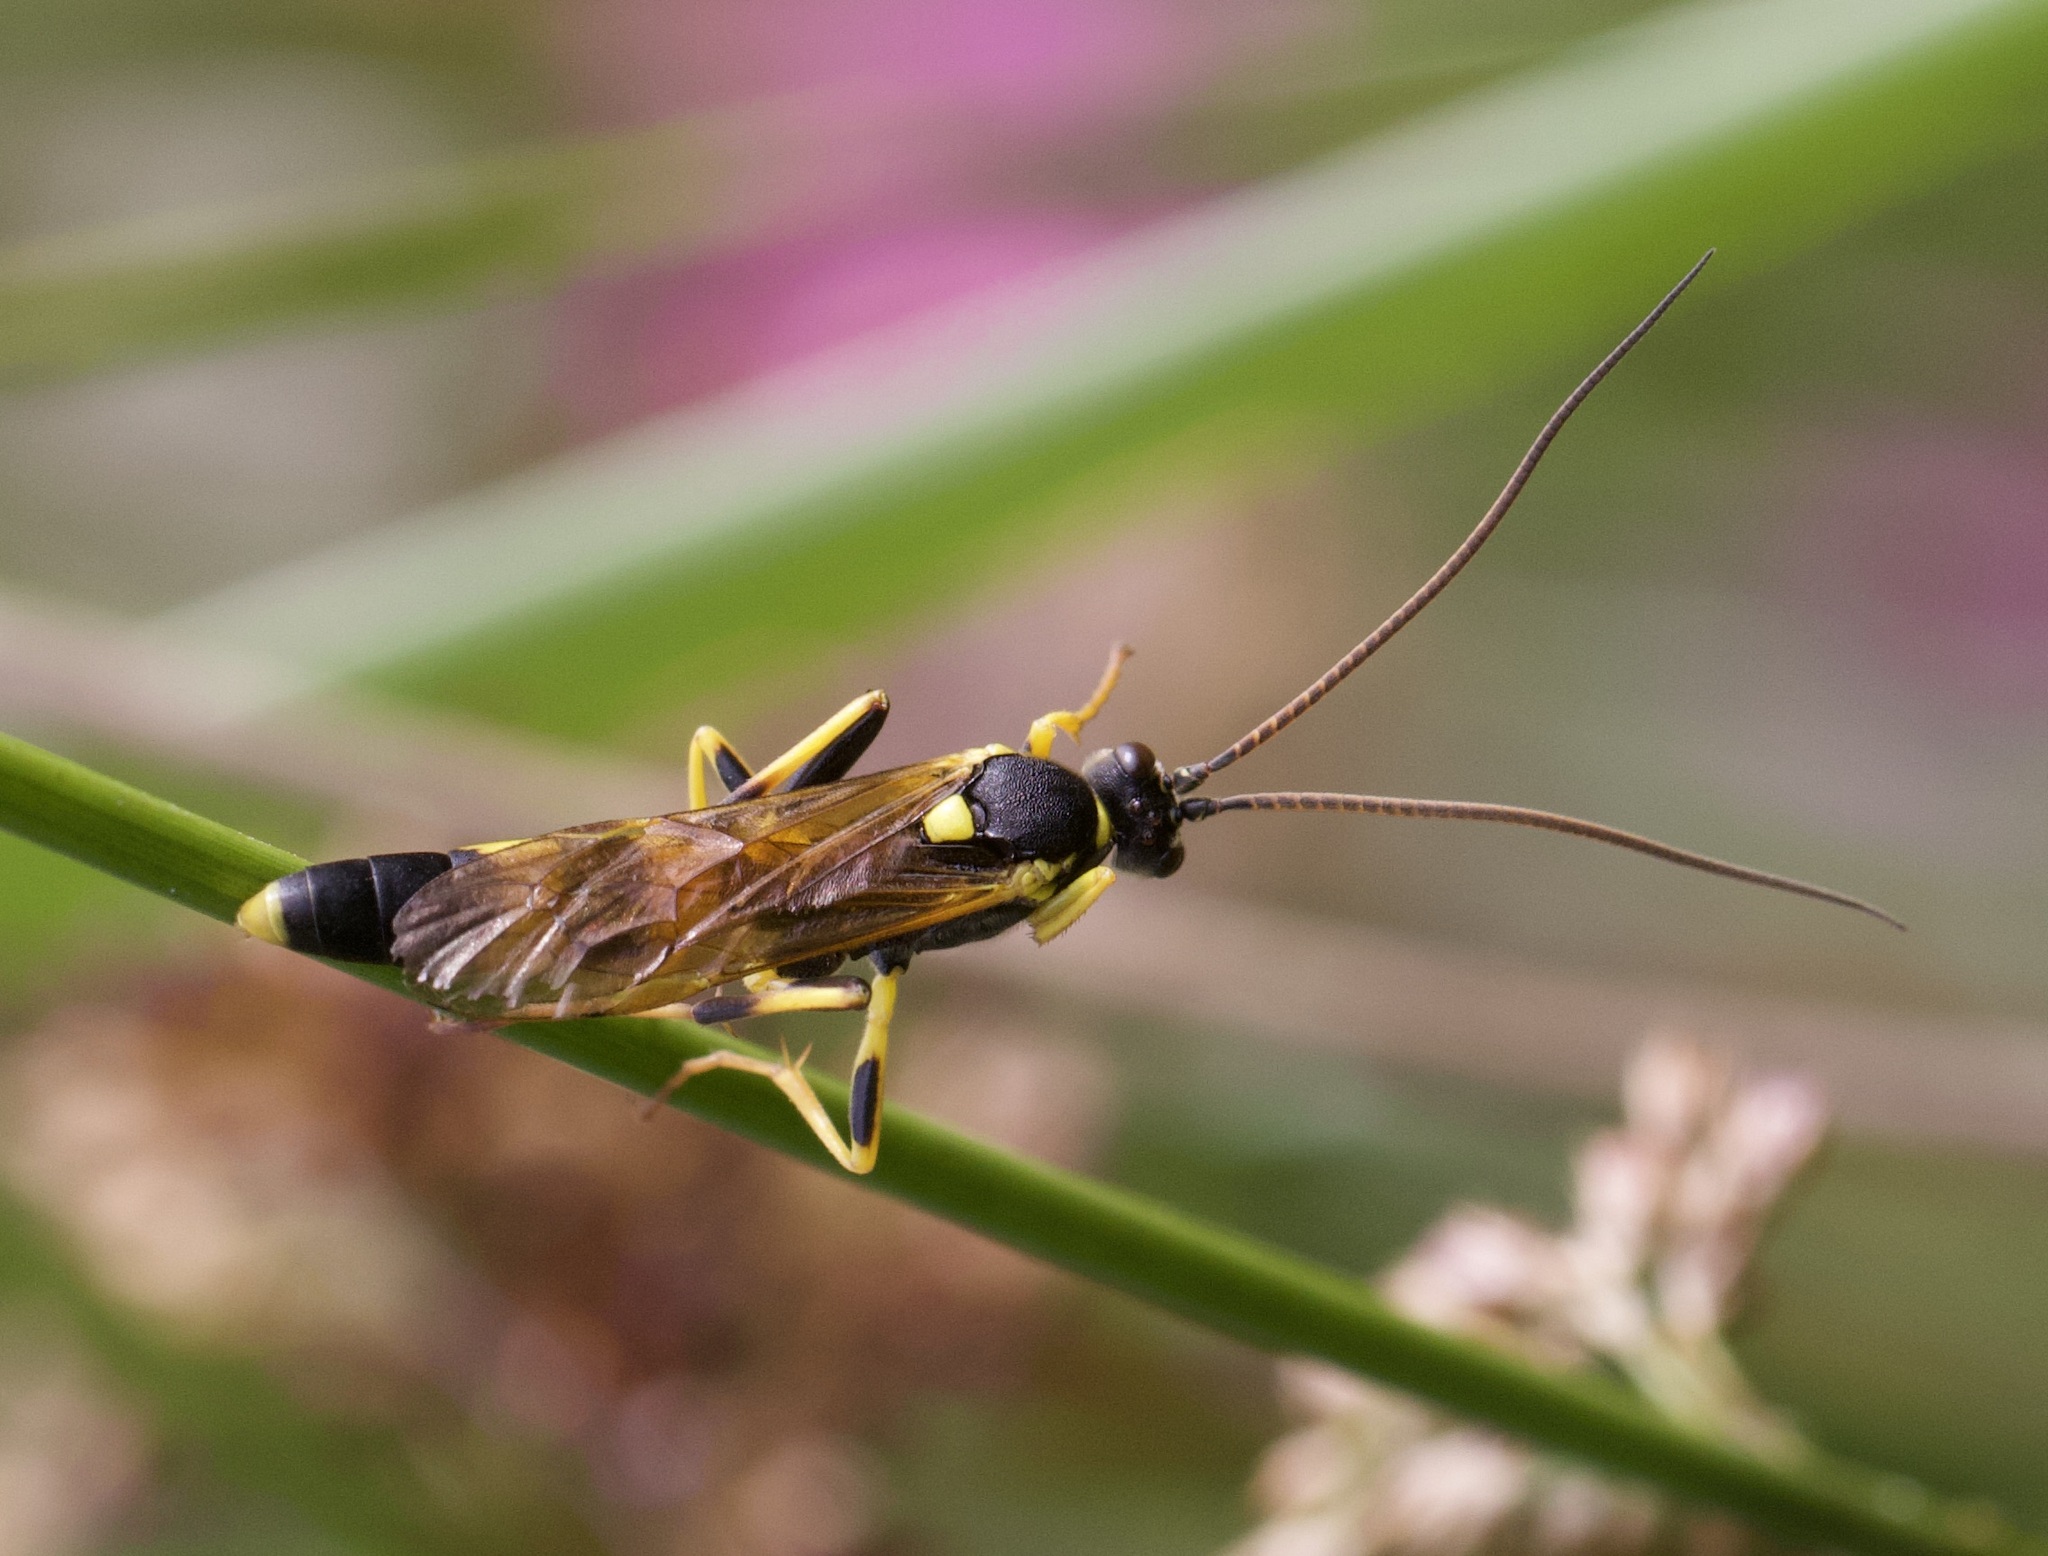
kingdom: Animalia
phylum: Arthropoda
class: Insecta
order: Hymenoptera
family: Ichneumonidae
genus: Amblyteles
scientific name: Amblyteles armatorius
